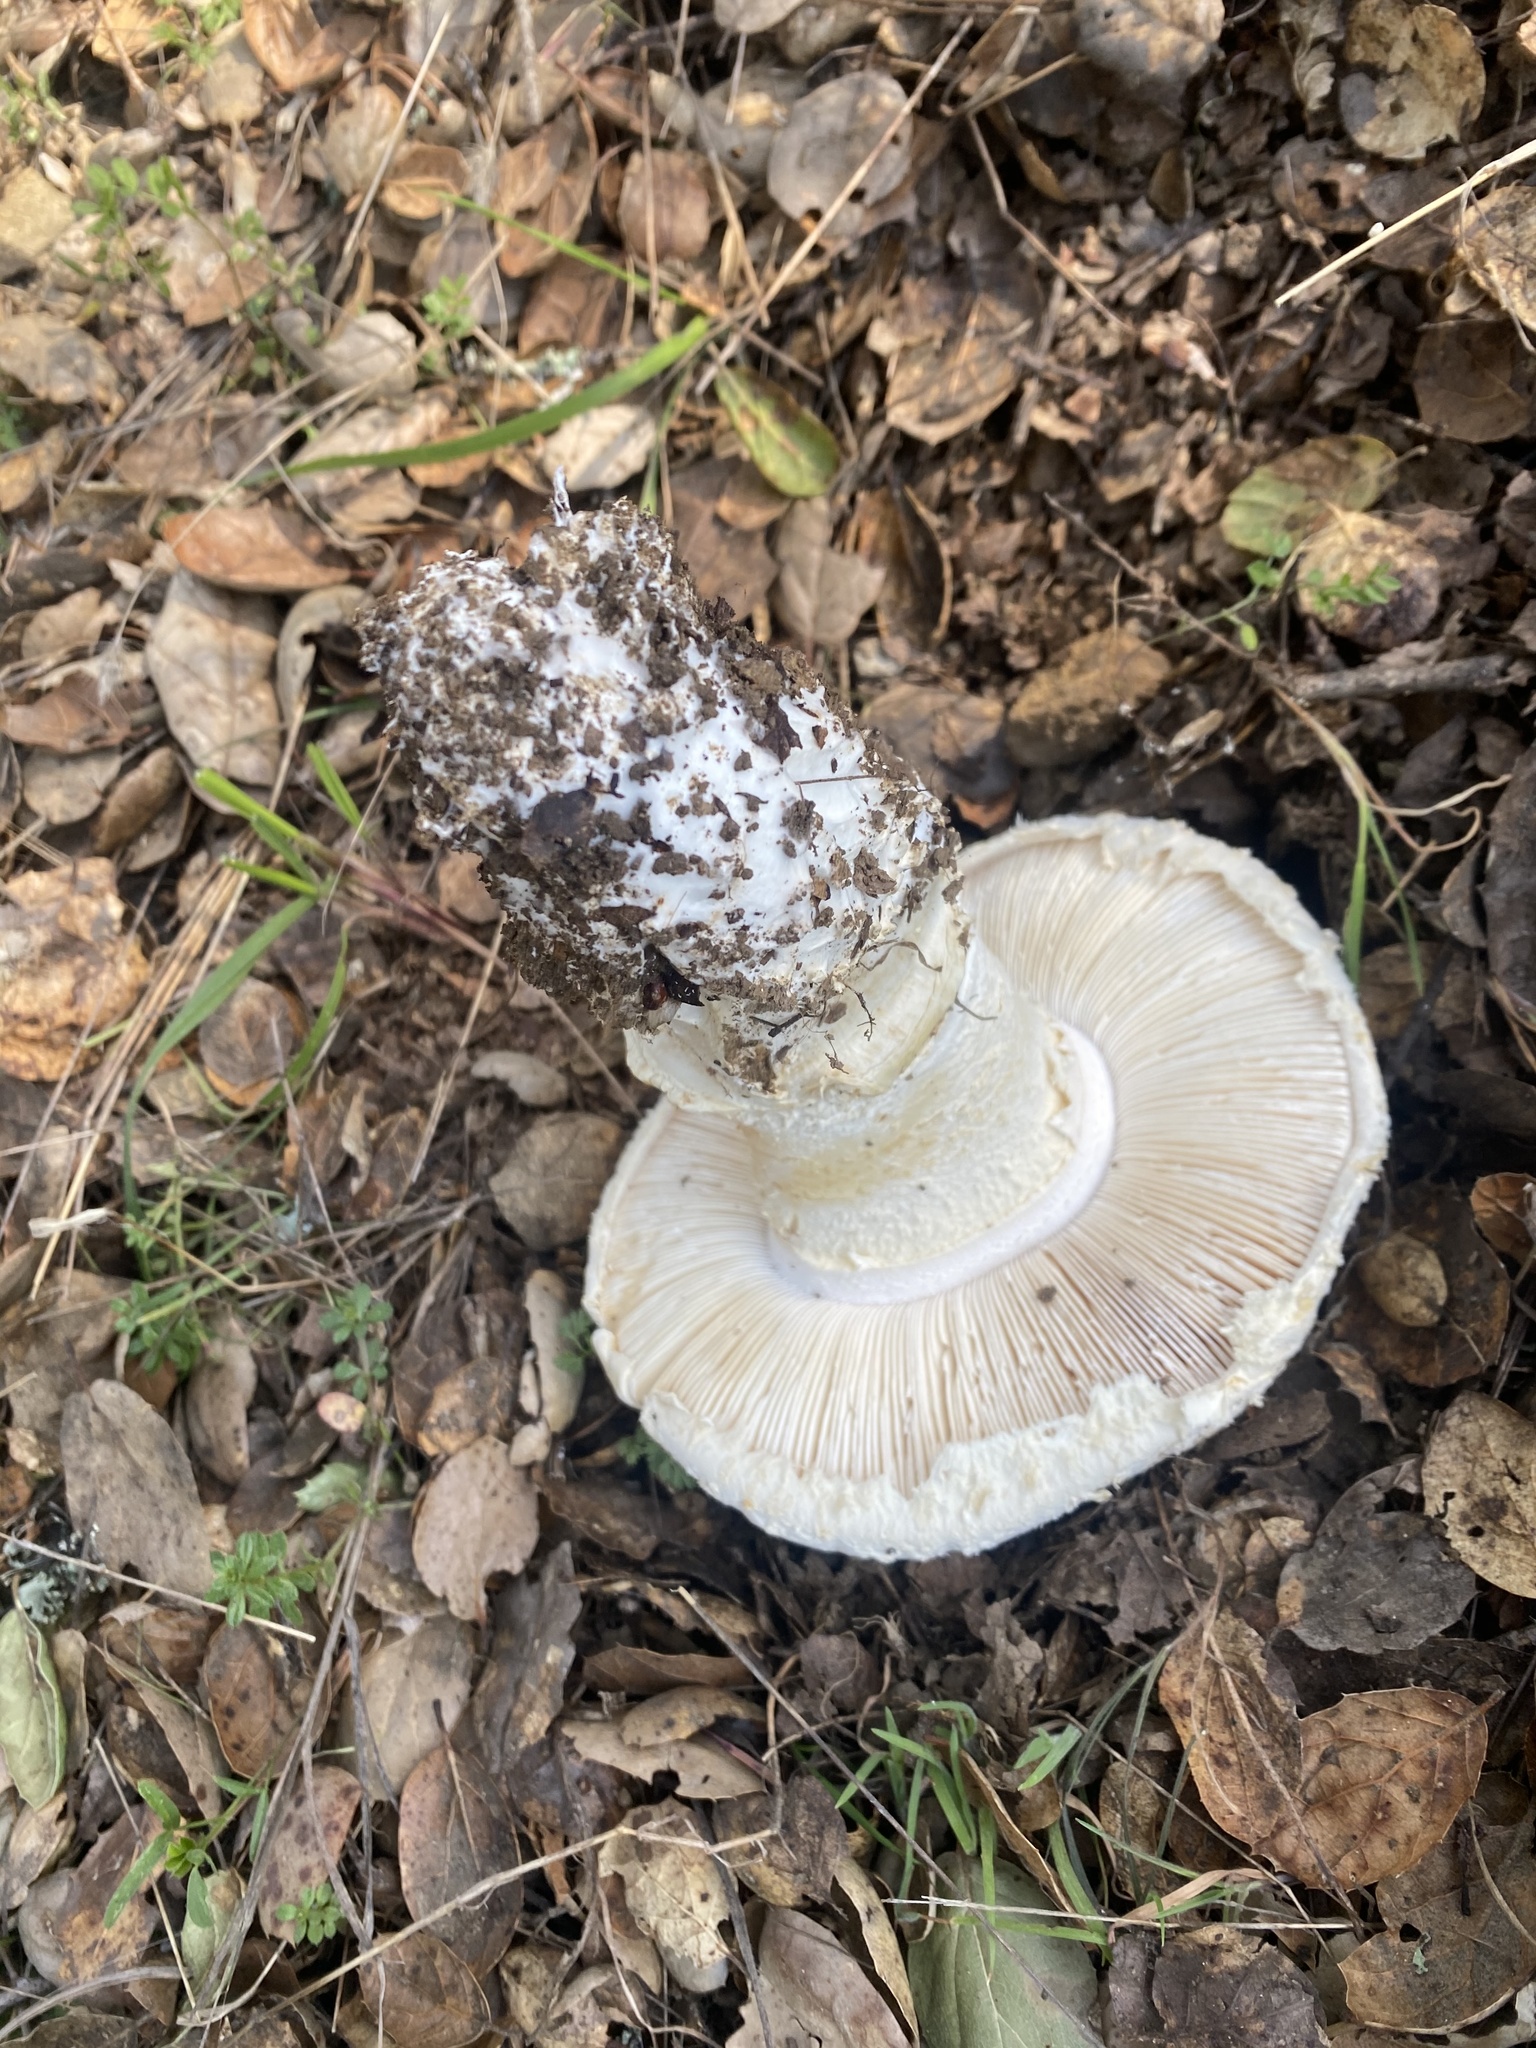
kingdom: Fungi
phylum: Basidiomycota
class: Agaricomycetes
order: Agaricales
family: Amanitaceae
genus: Amanita
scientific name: Amanita magniverrucata
